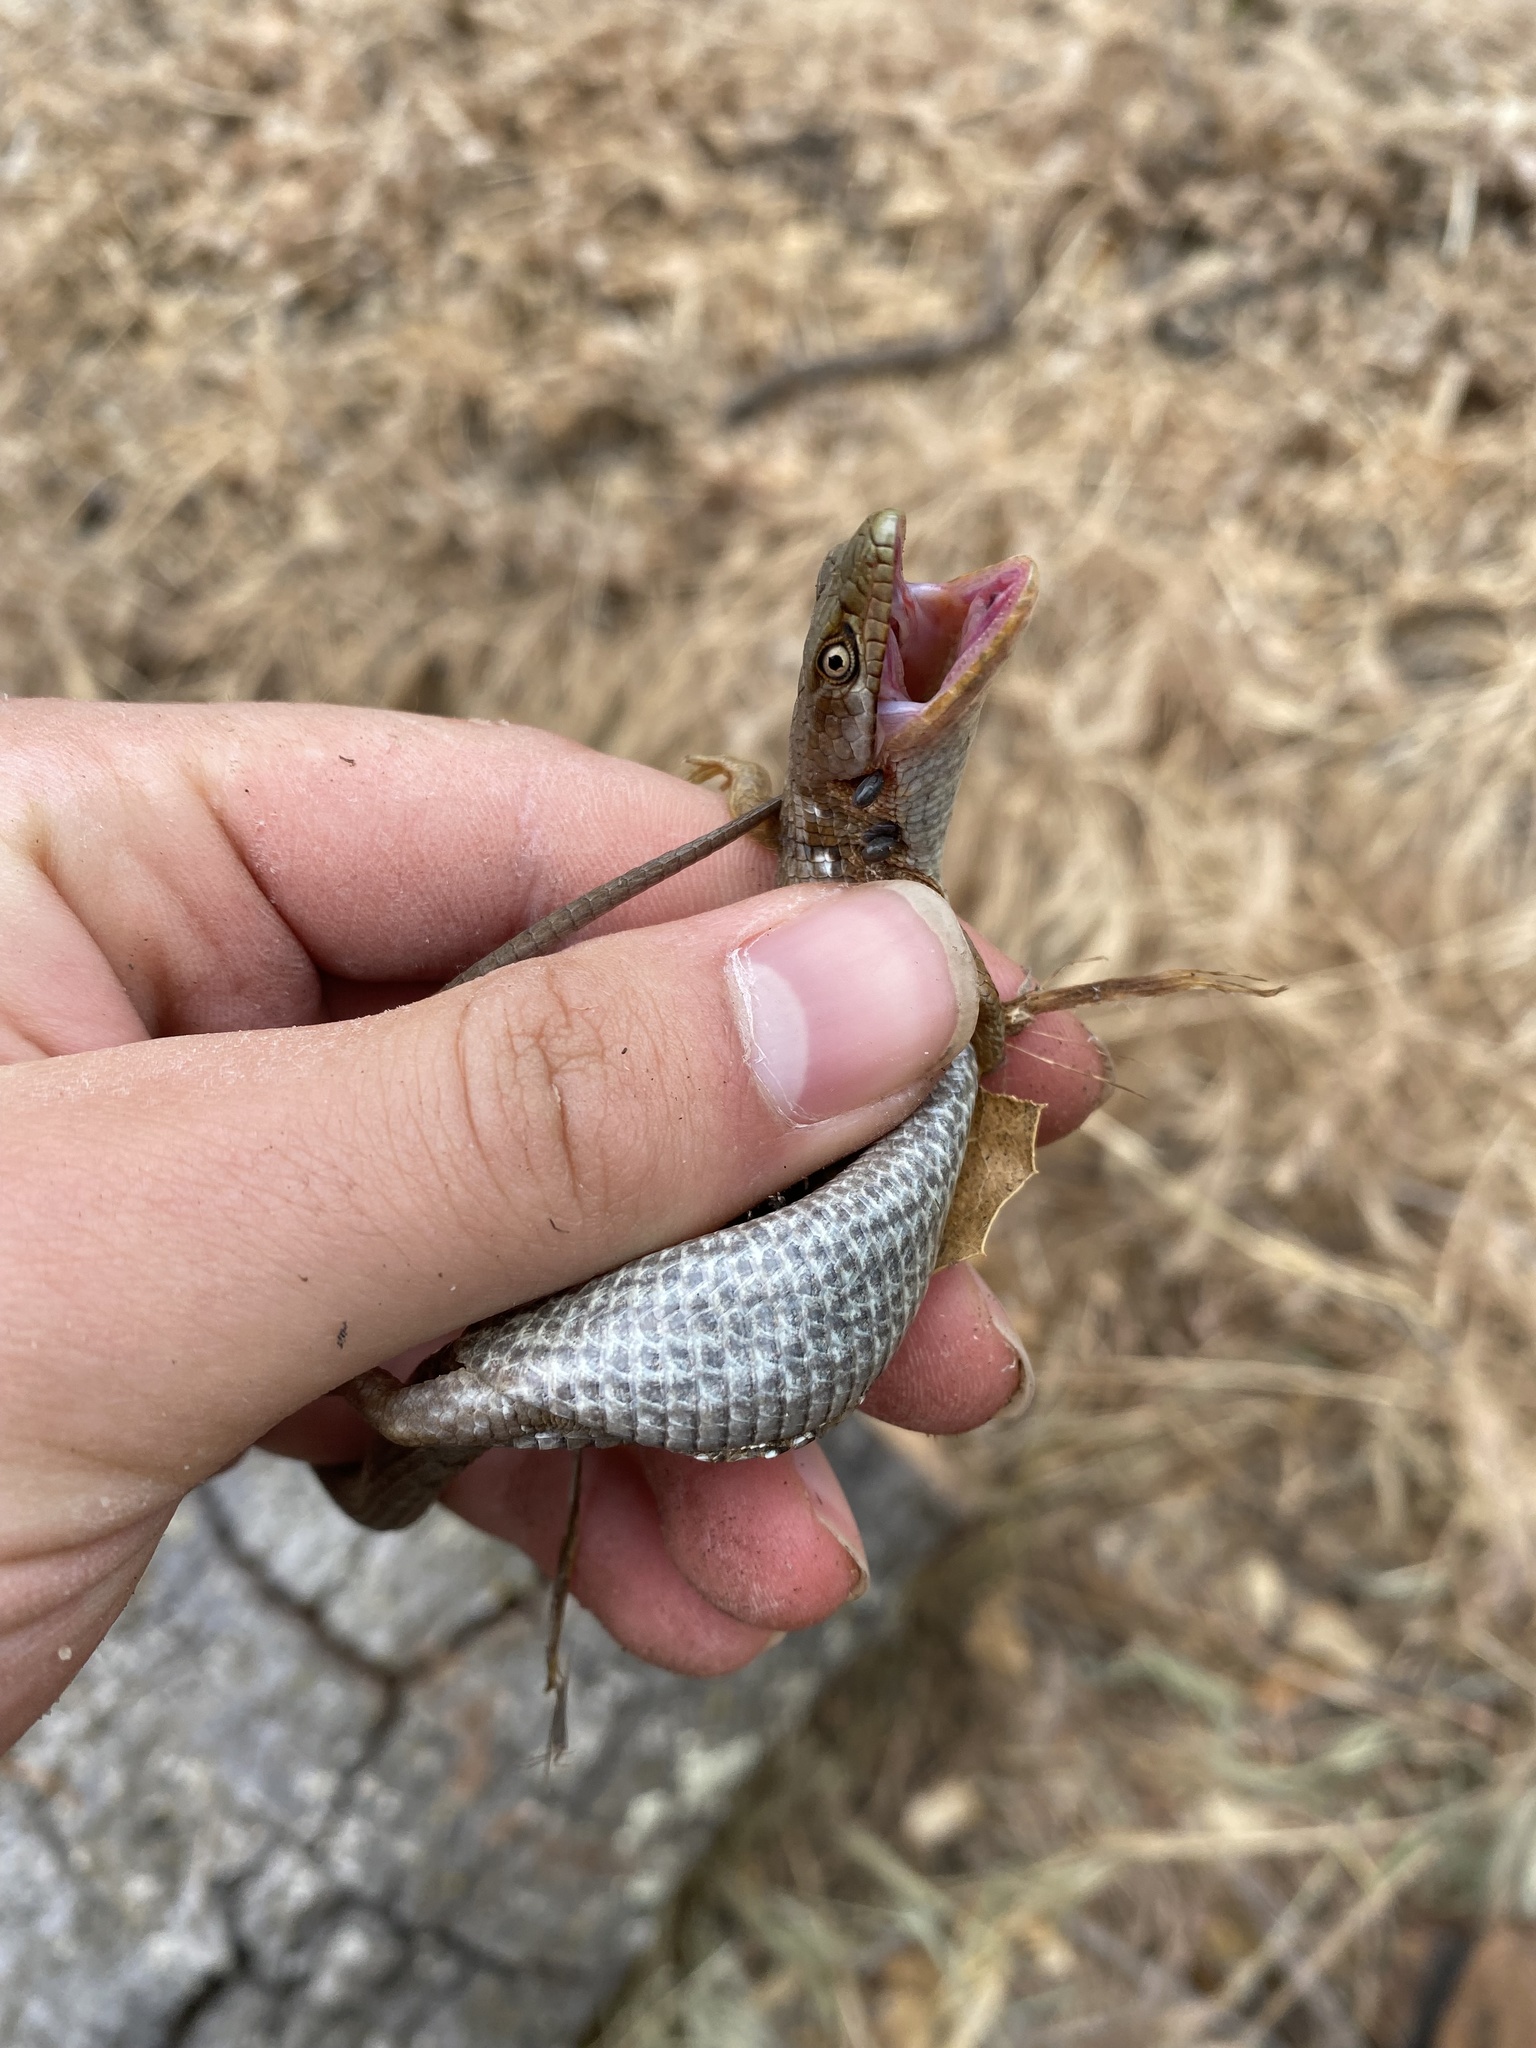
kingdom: Animalia
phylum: Chordata
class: Squamata
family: Anguidae
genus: Elgaria
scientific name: Elgaria multicarinata
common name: Southern alligator lizard
